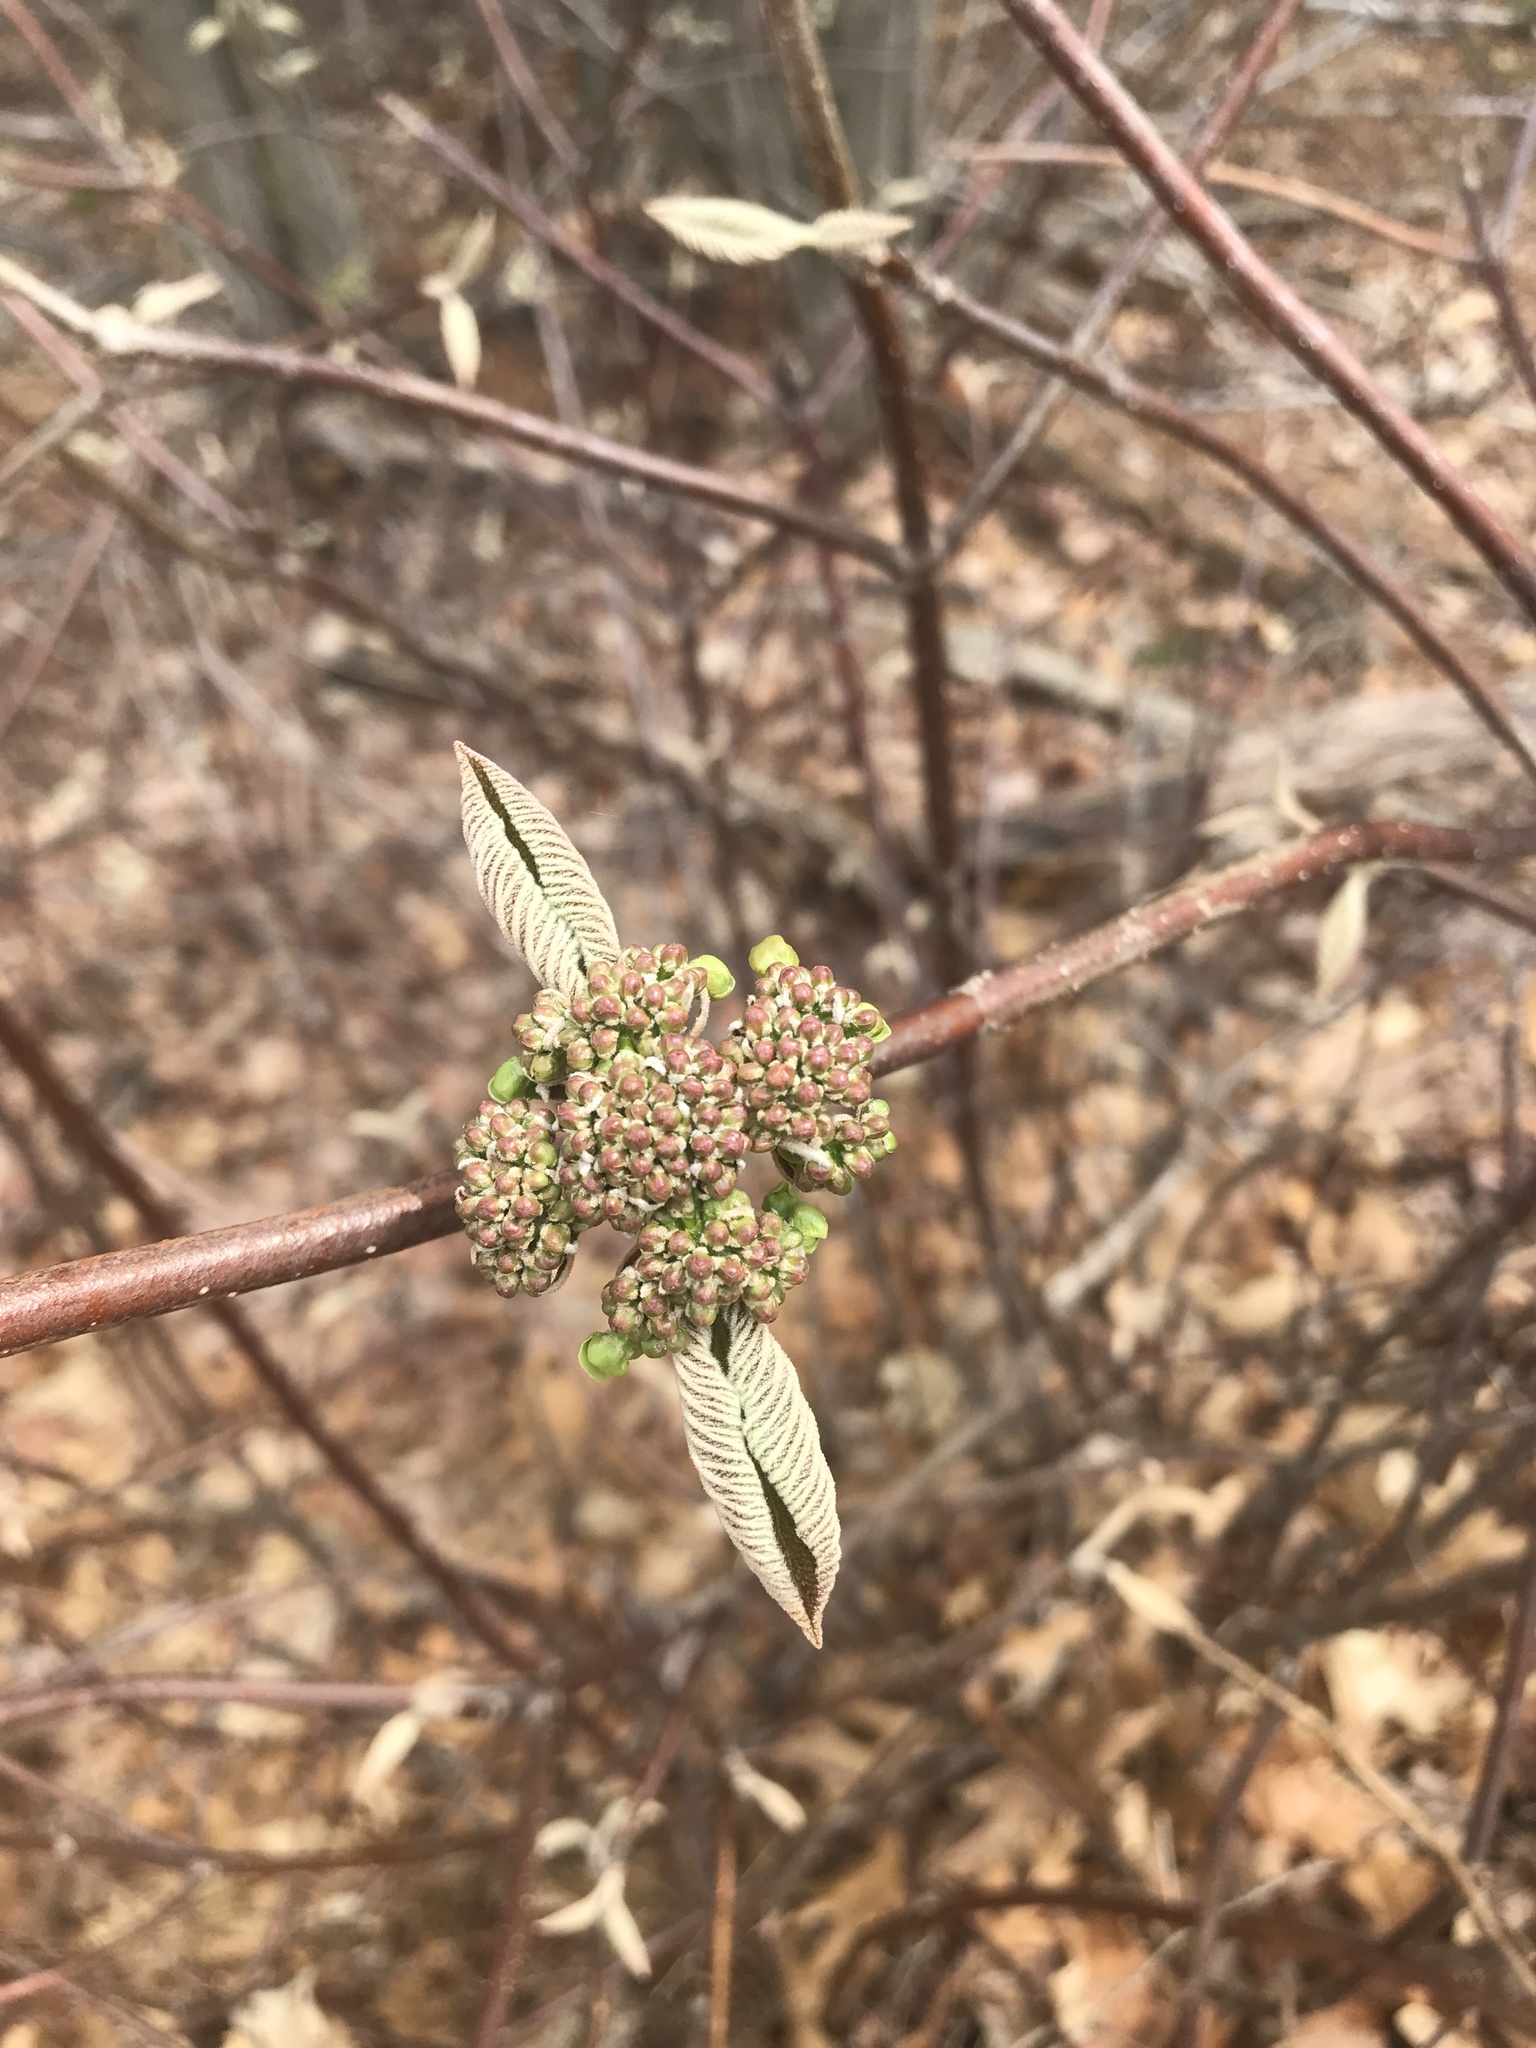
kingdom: Plantae
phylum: Tracheophyta
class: Magnoliopsida
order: Dipsacales
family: Viburnaceae
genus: Viburnum
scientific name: Viburnum lantanoides
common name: Hobblebush
